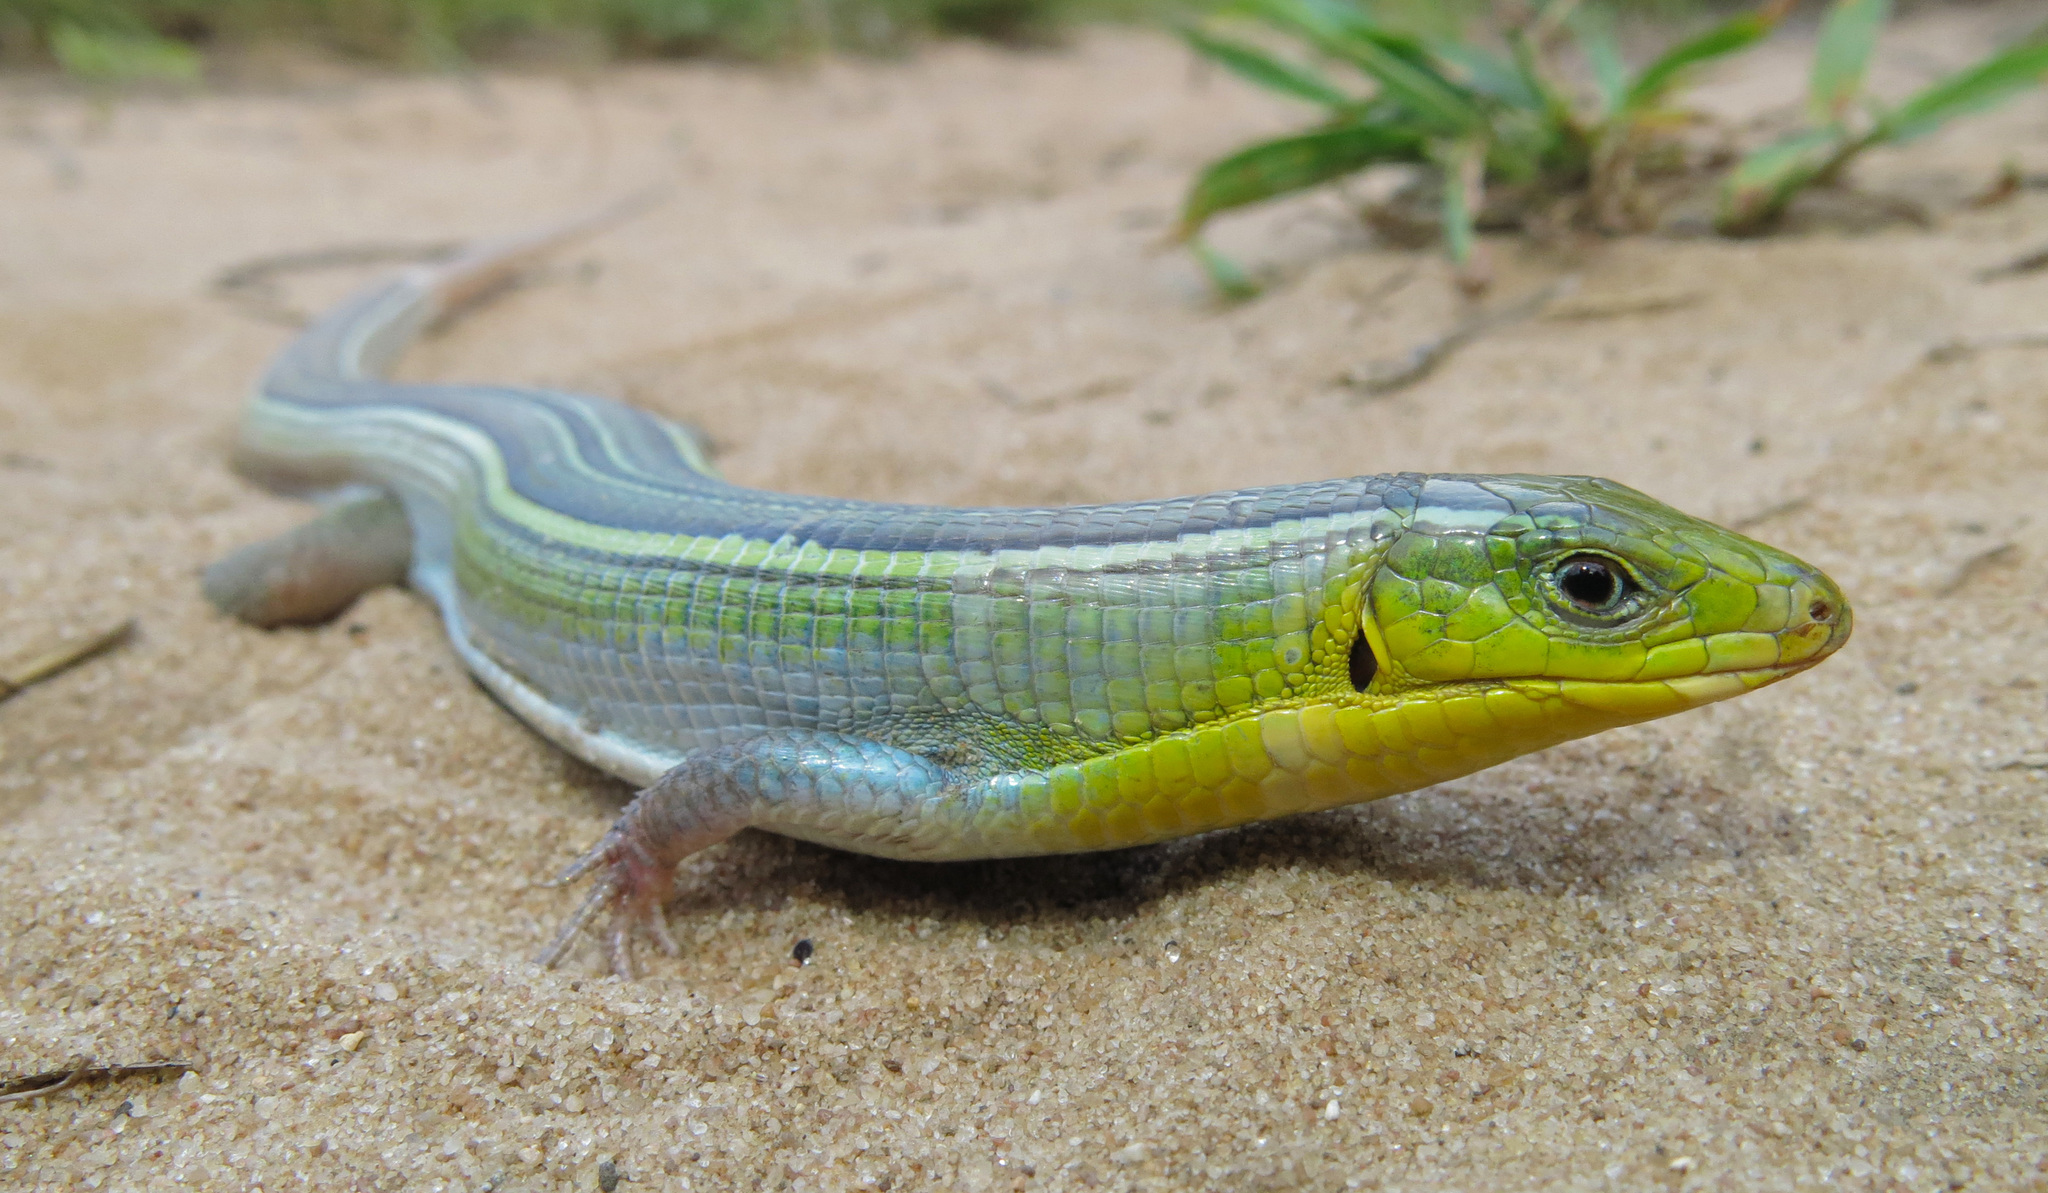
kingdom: Animalia
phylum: Chordata
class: Squamata
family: Gerrhosauridae
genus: Gerrhosaurus
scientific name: Gerrhosaurus flavigularis
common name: Yellow-throated plated lizard
